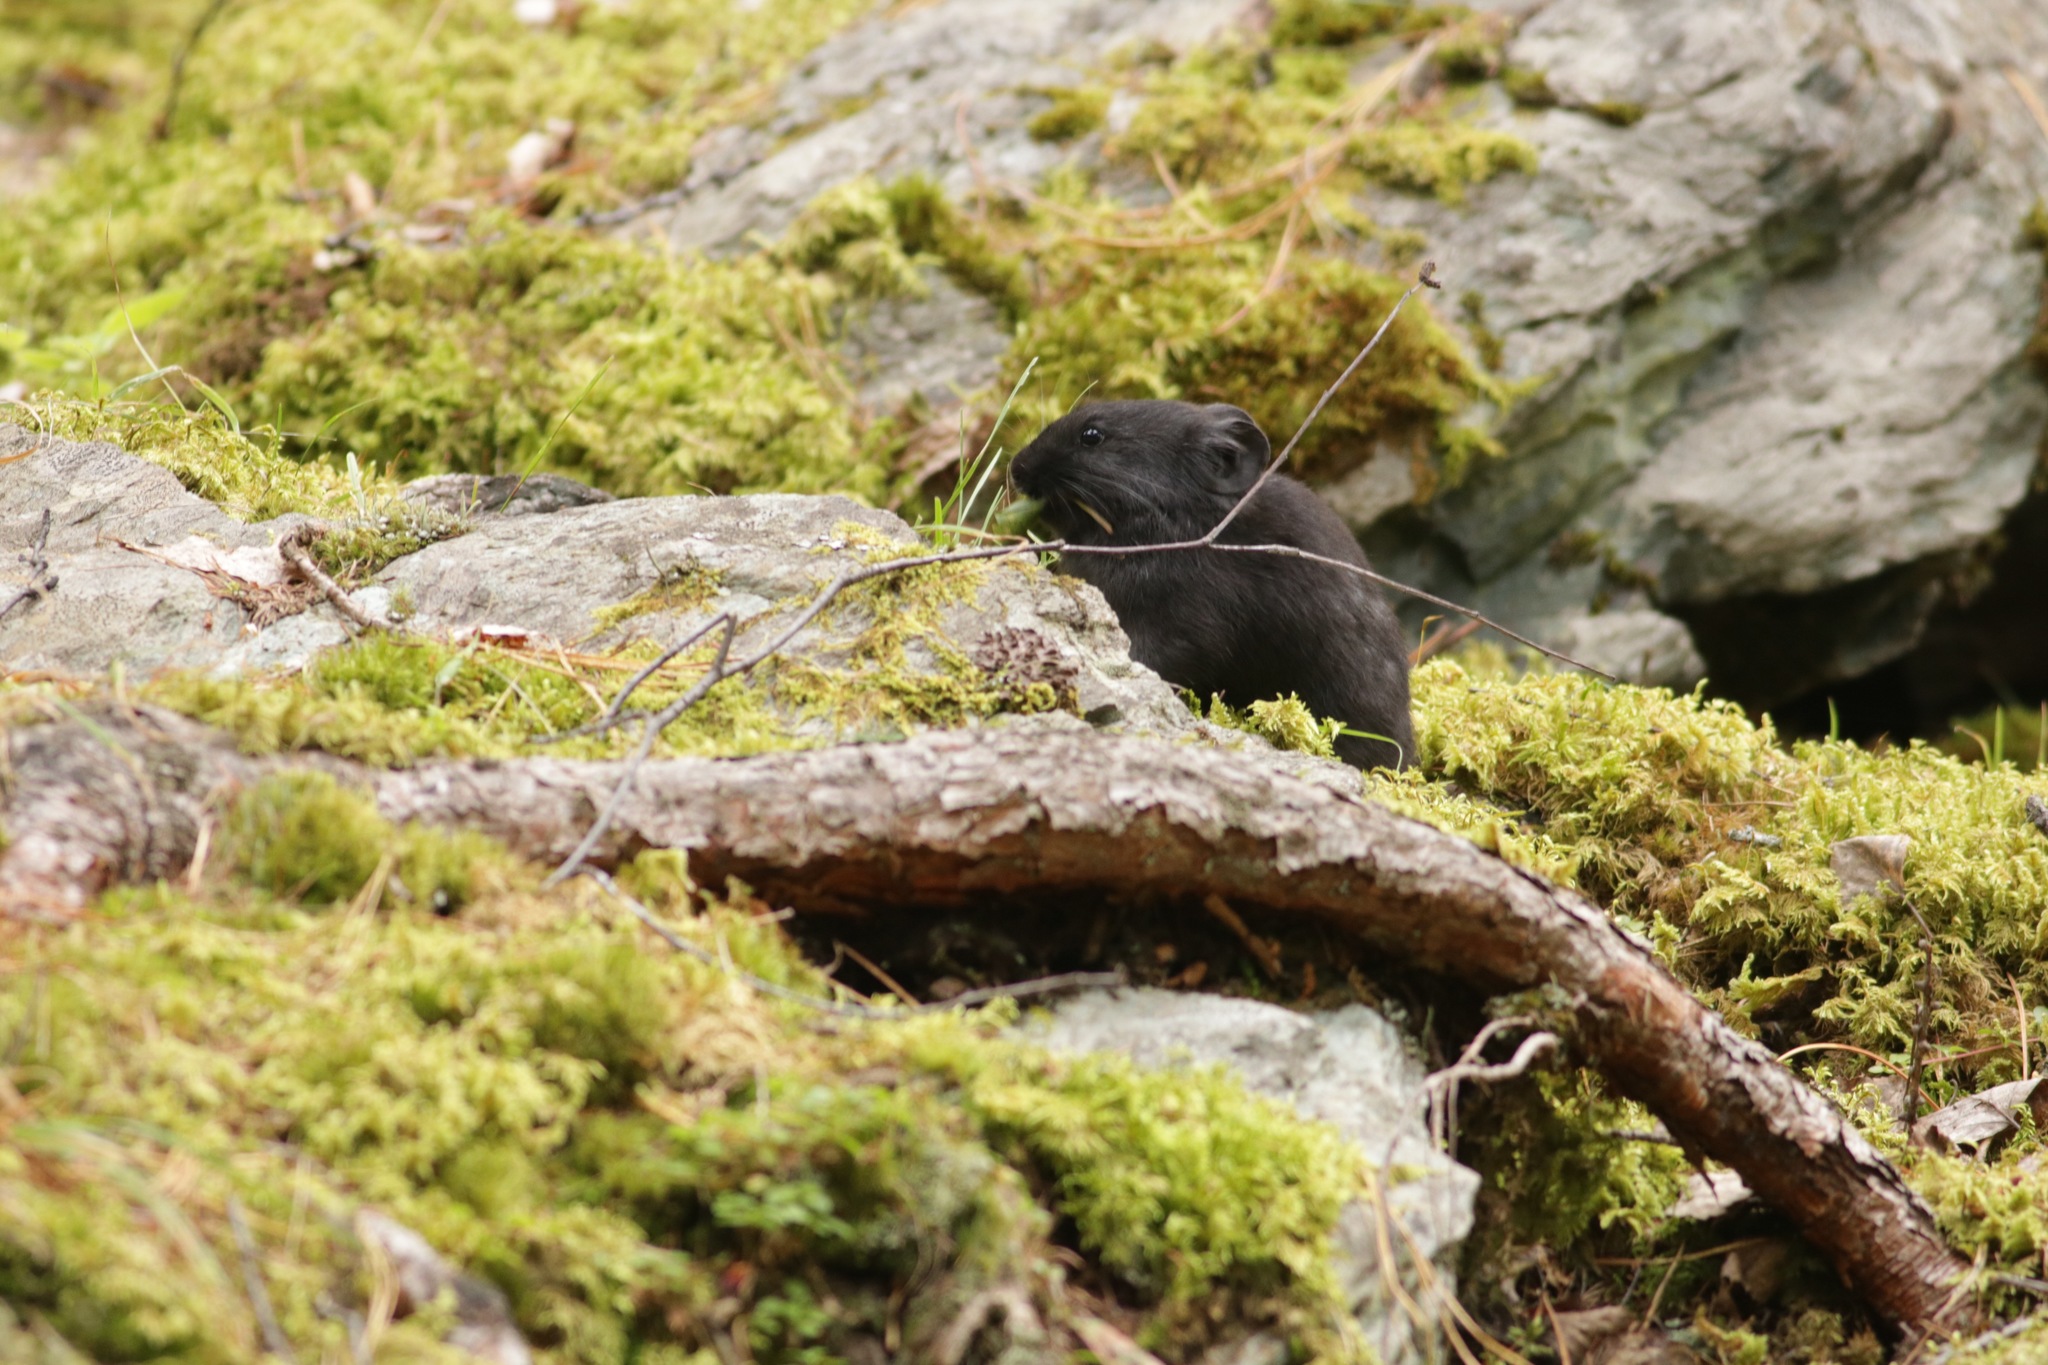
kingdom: Animalia
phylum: Chordata
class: Mammalia
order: Lagomorpha
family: Ochotonidae
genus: Ochotona
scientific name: Ochotona alpina
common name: Alpine pika
